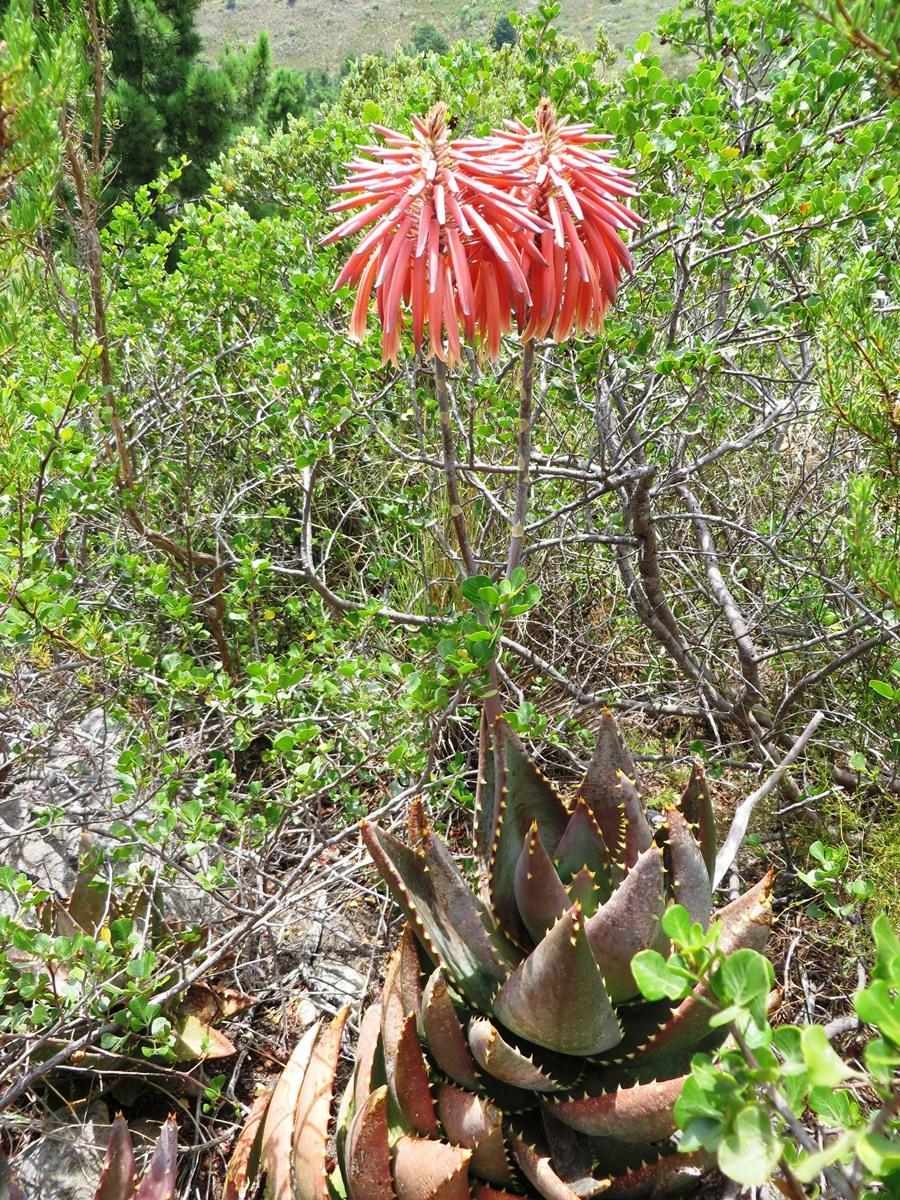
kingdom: Plantae
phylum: Tracheophyta
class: Liliopsida
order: Asparagales
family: Asphodelaceae
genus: Aloe
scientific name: Aloe perfoliata
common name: Mitra aloe
